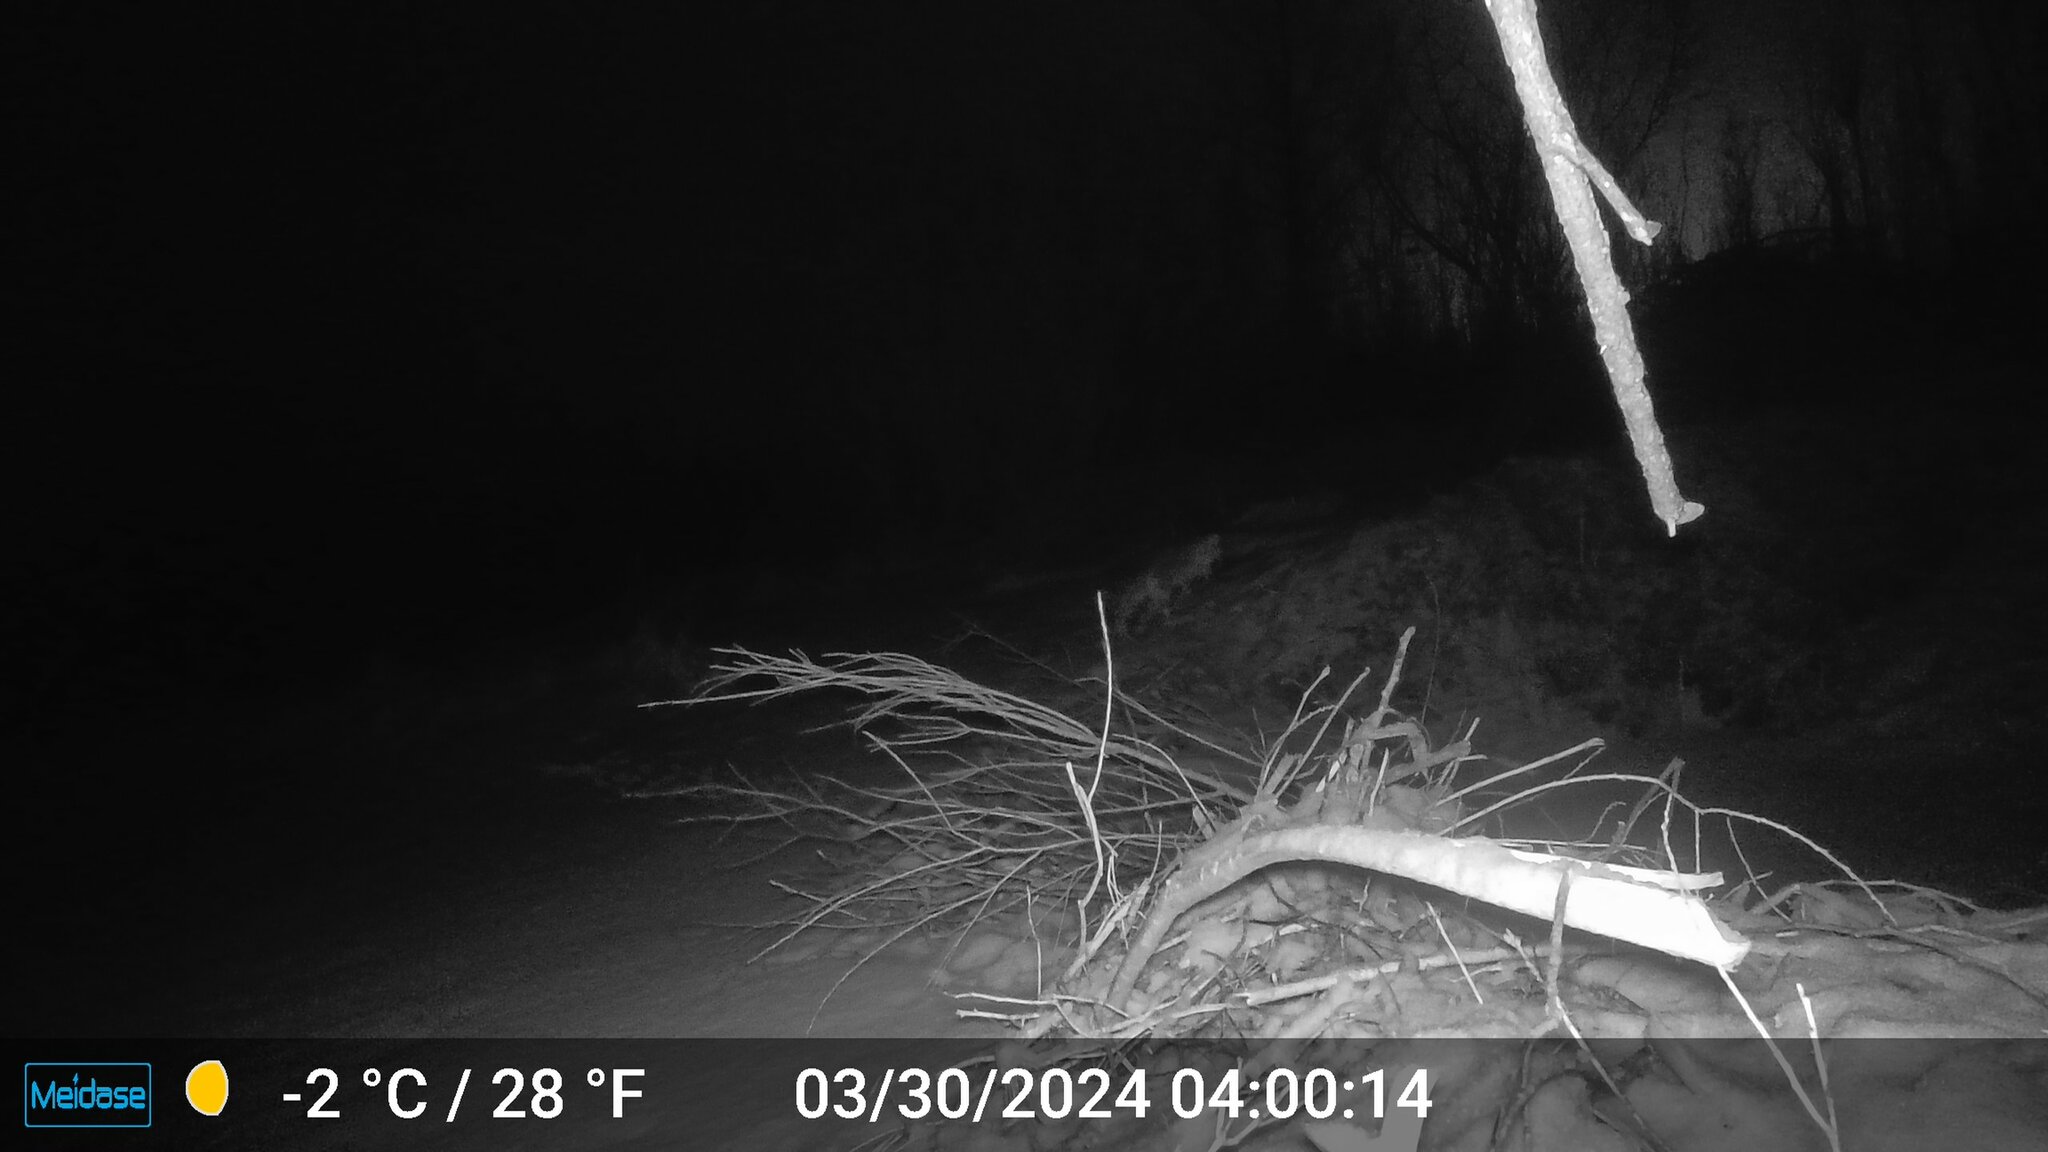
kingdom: Animalia
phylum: Chordata
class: Mammalia
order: Carnivora
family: Canidae
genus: Vulpes
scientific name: Vulpes vulpes
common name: Red fox
